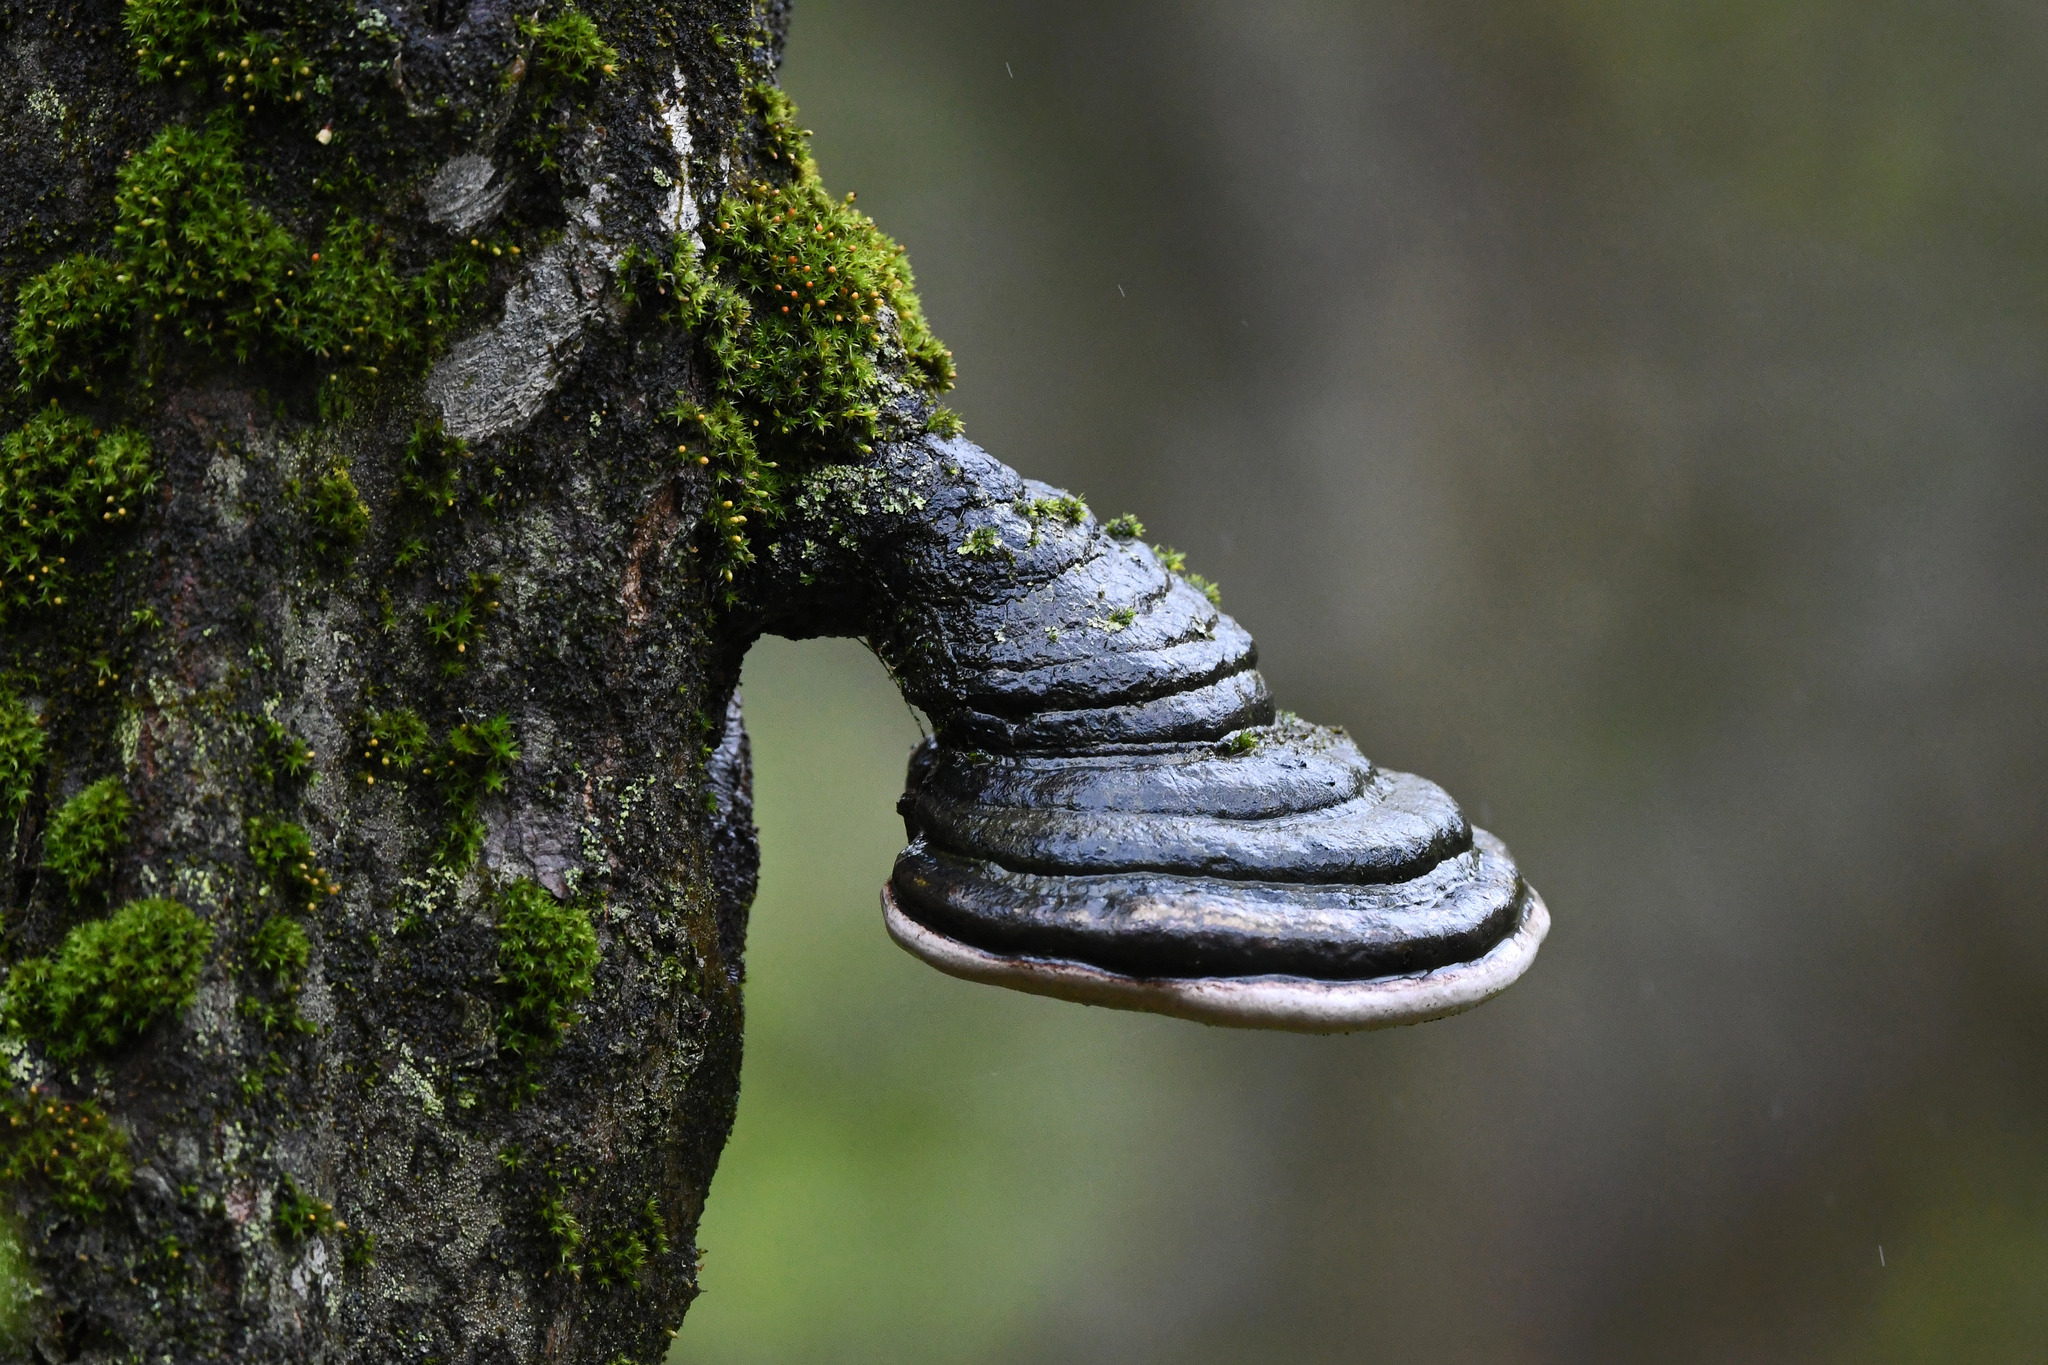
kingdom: Fungi
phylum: Basidiomycota
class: Agaricomycetes
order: Polyporales
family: Polyporaceae
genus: Fomes
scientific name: Fomes fomentarius
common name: Hoof fungus
